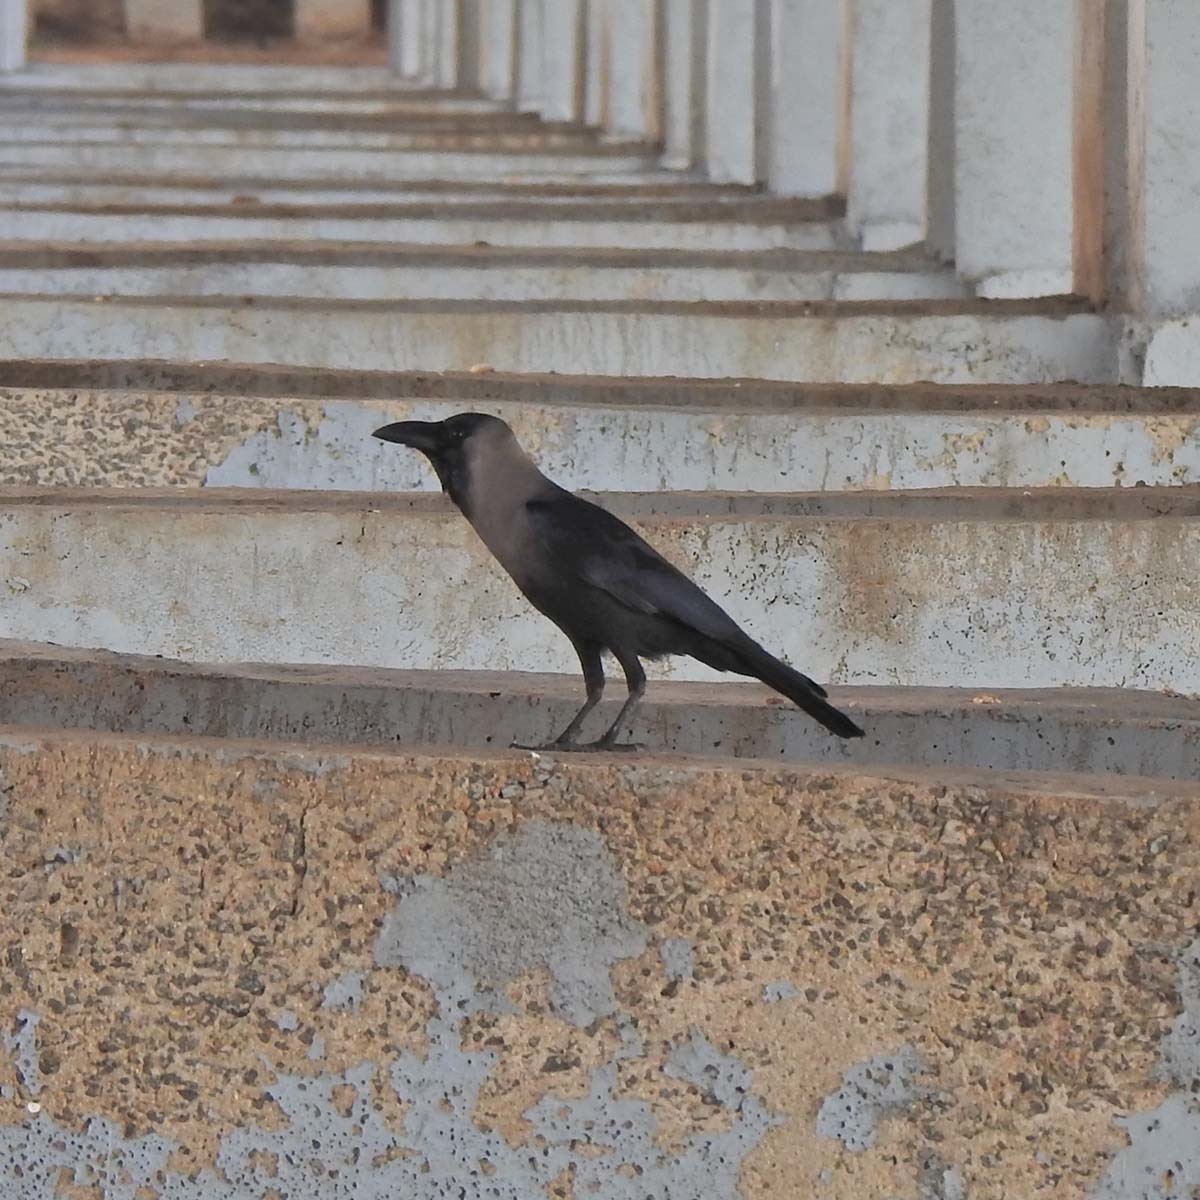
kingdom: Animalia
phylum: Chordata
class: Aves
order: Passeriformes
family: Corvidae
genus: Corvus
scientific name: Corvus splendens
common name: House crow
